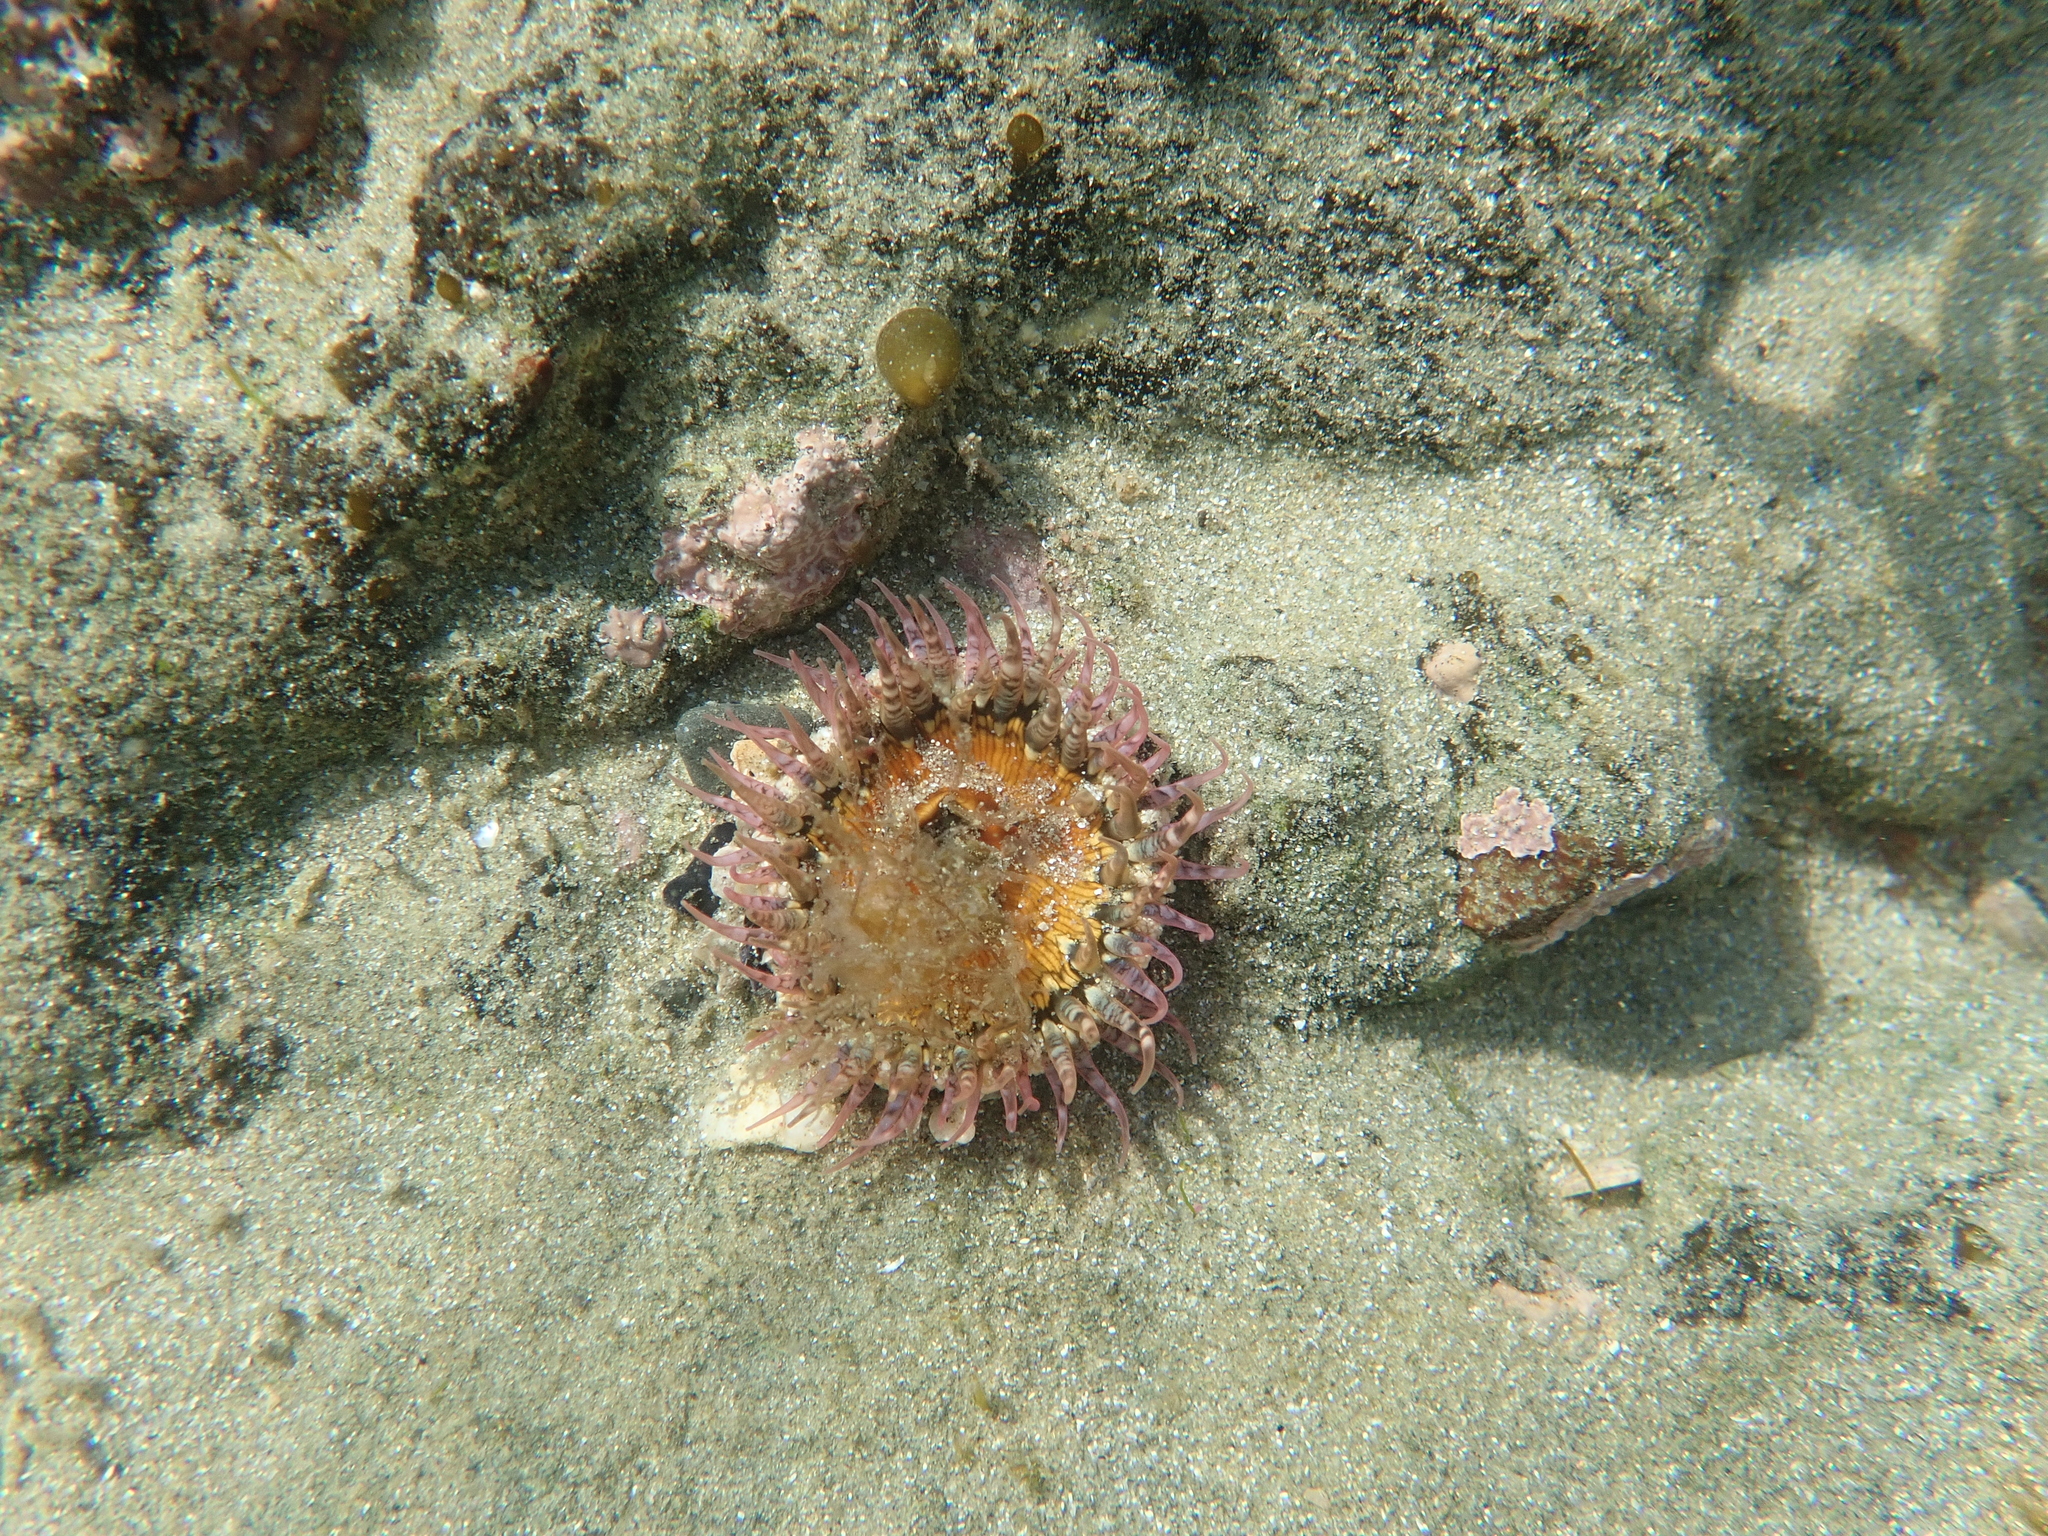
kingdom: Animalia
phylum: Cnidaria
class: Anthozoa
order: Actiniaria
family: Actiniidae
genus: Oulactis
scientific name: Oulactis muscosa
